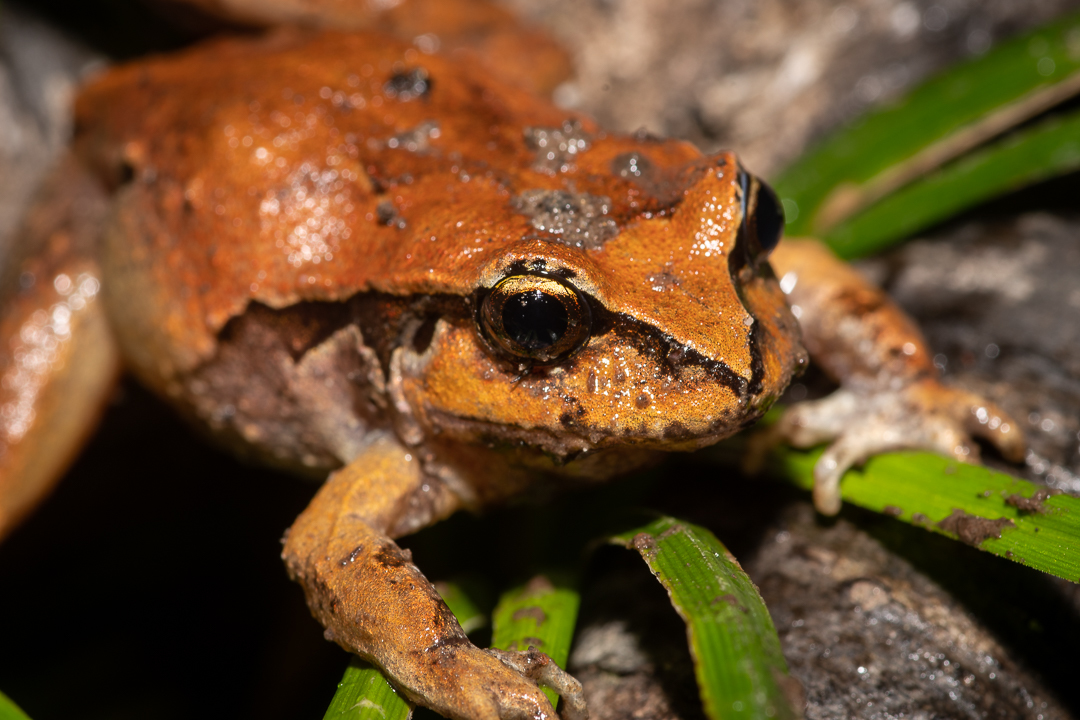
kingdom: Animalia
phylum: Chordata
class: Amphibia
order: Anura
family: Alsodidae
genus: Eupsophus
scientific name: Eupsophus calcaratus
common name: Chiloe island ground frog
